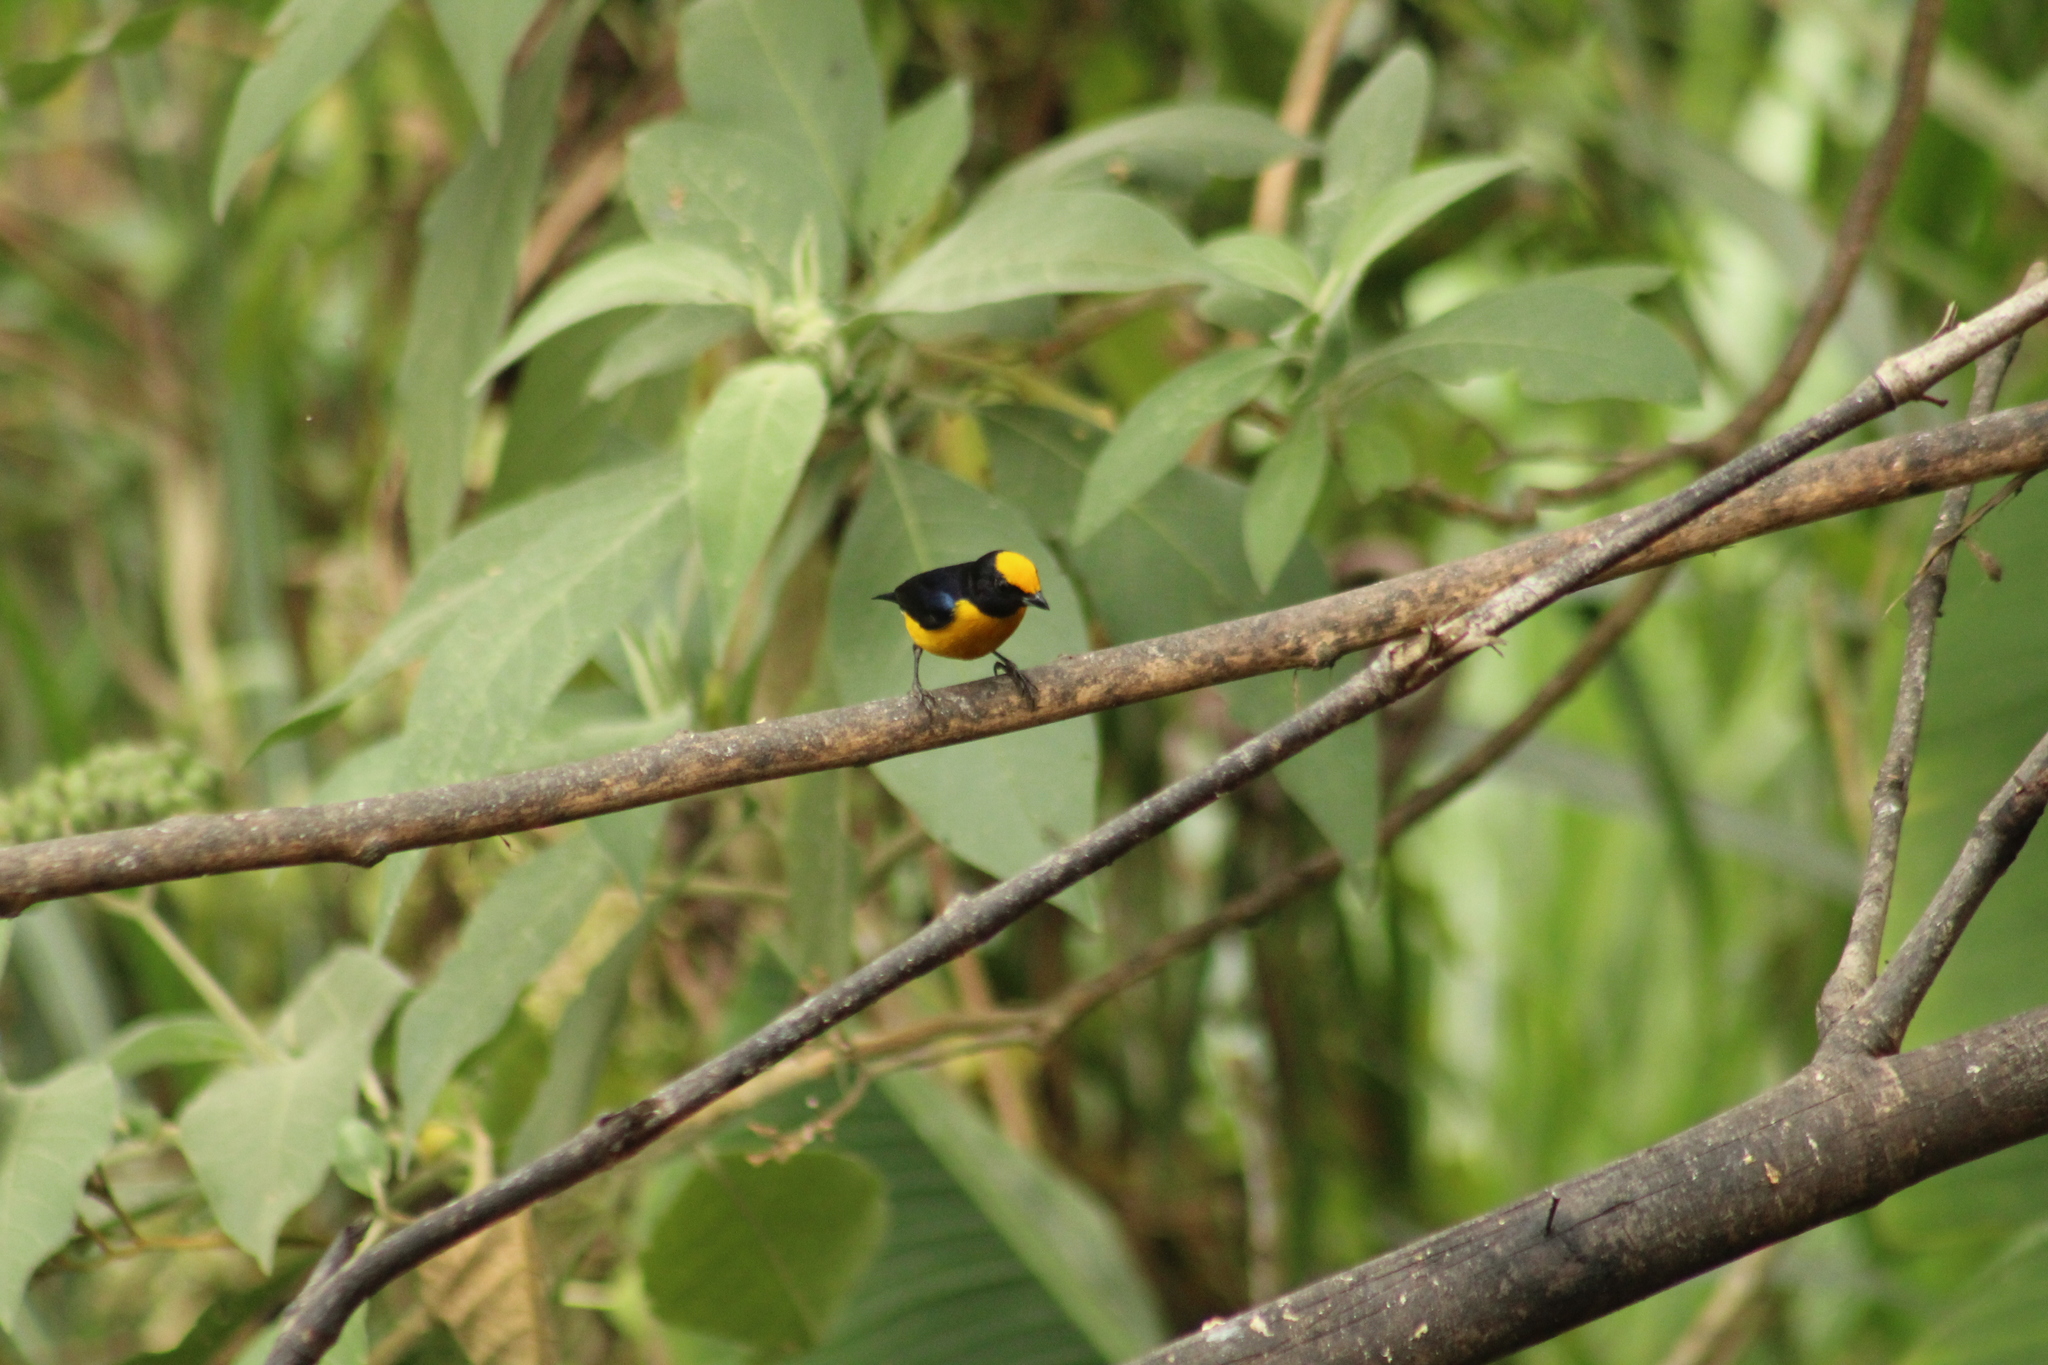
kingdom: Animalia
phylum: Chordata
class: Aves
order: Passeriformes
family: Fringillidae
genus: Euphonia
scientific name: Euphonia xanthogaster
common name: Orange-bellied euphonia
